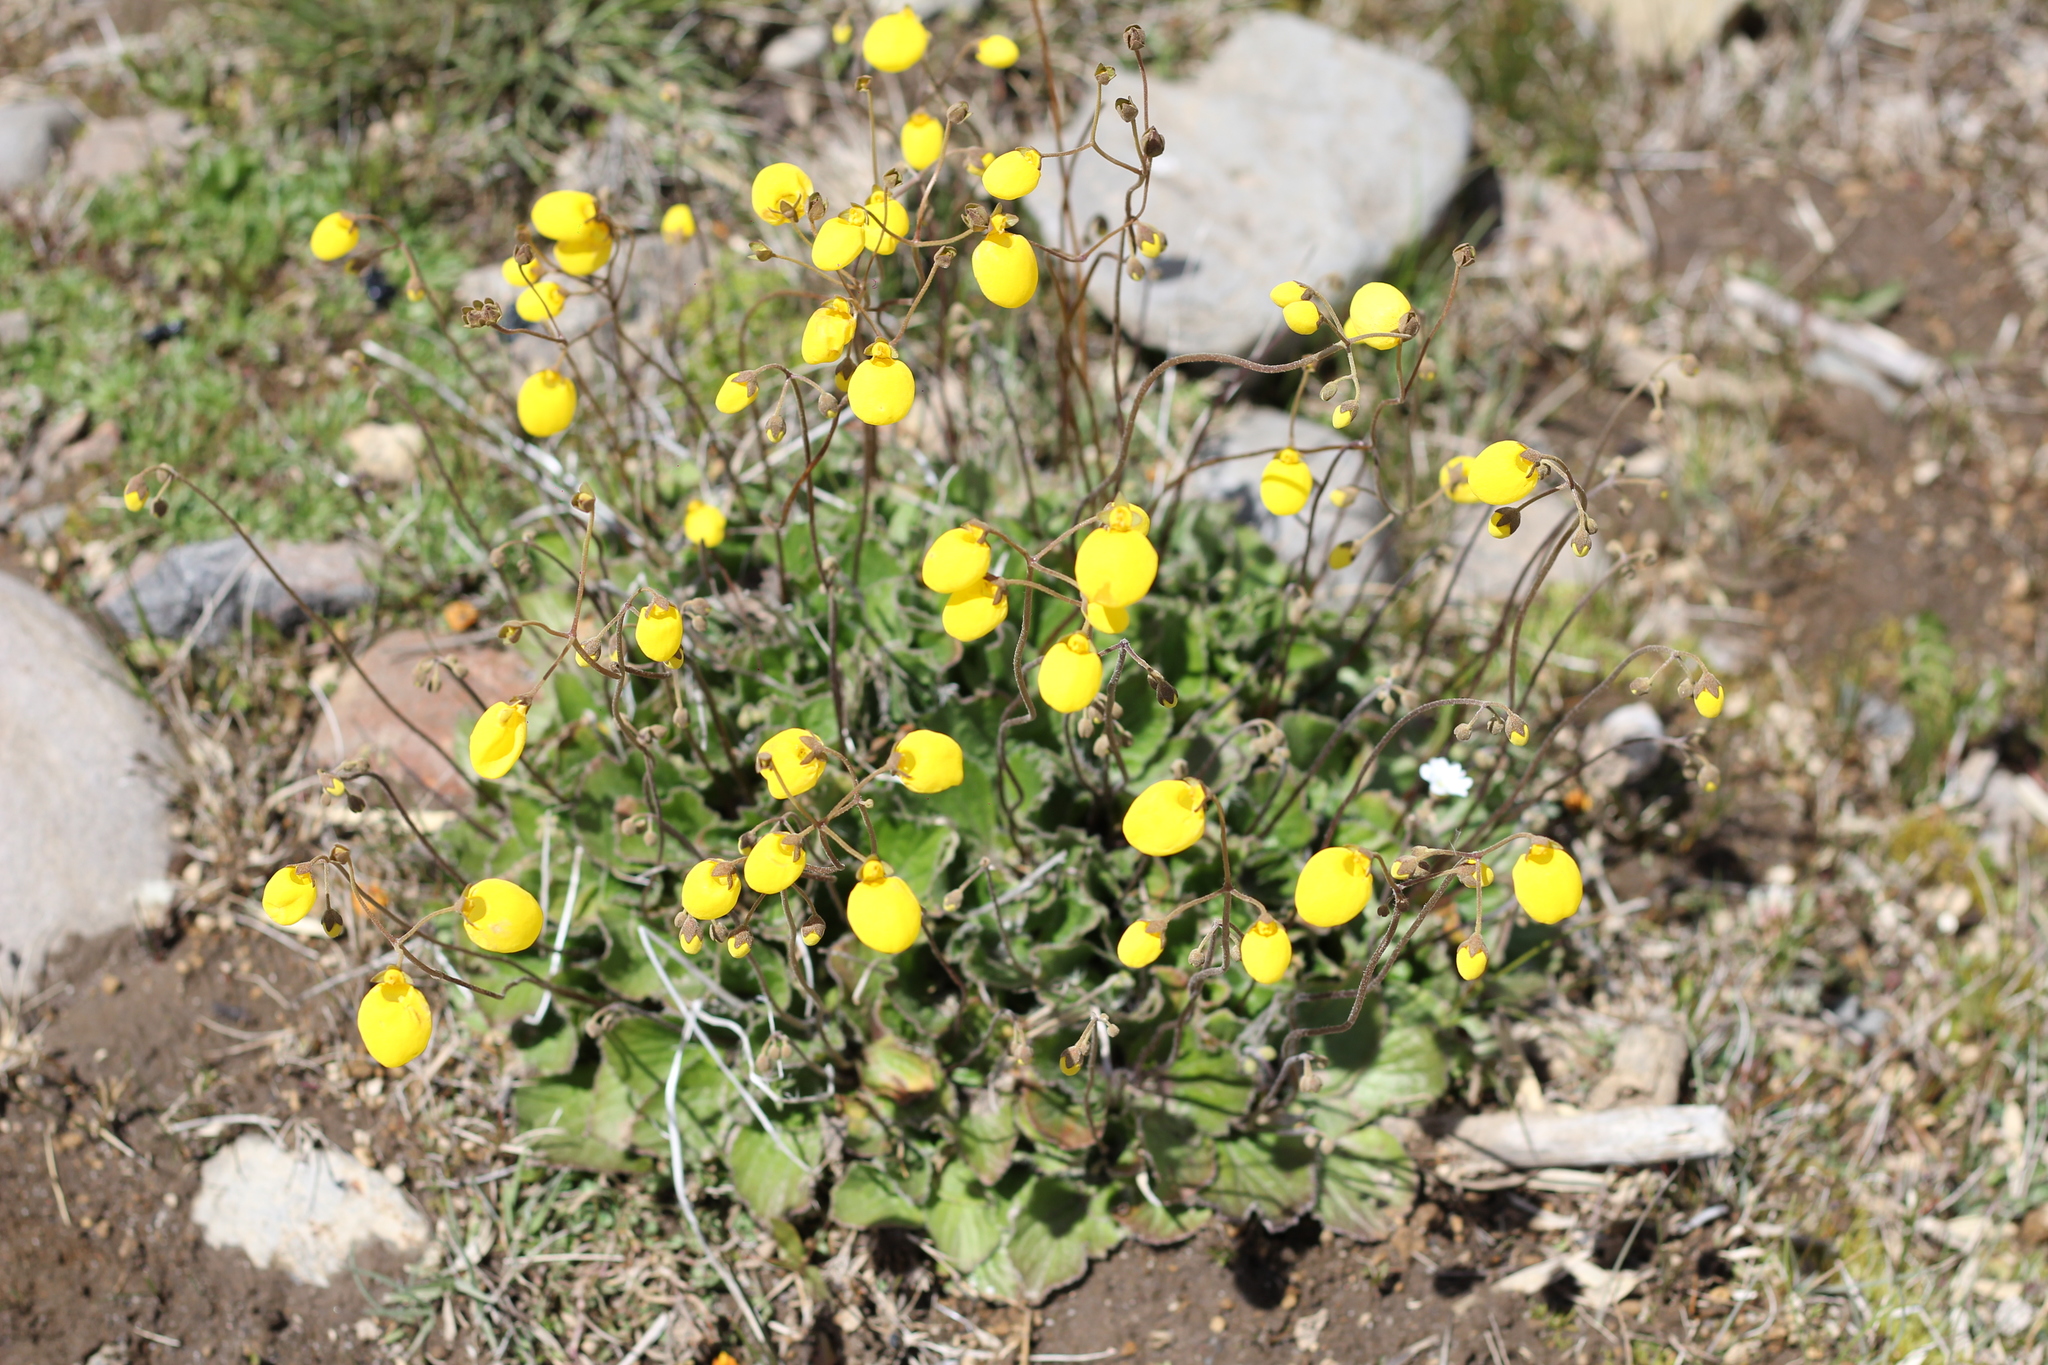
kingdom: Plantae
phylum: Tracheophyta
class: Magnoliopsida
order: Lamiales
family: Calceolariaceae
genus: Calceolaria
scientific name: Calceolaria filicaulis
